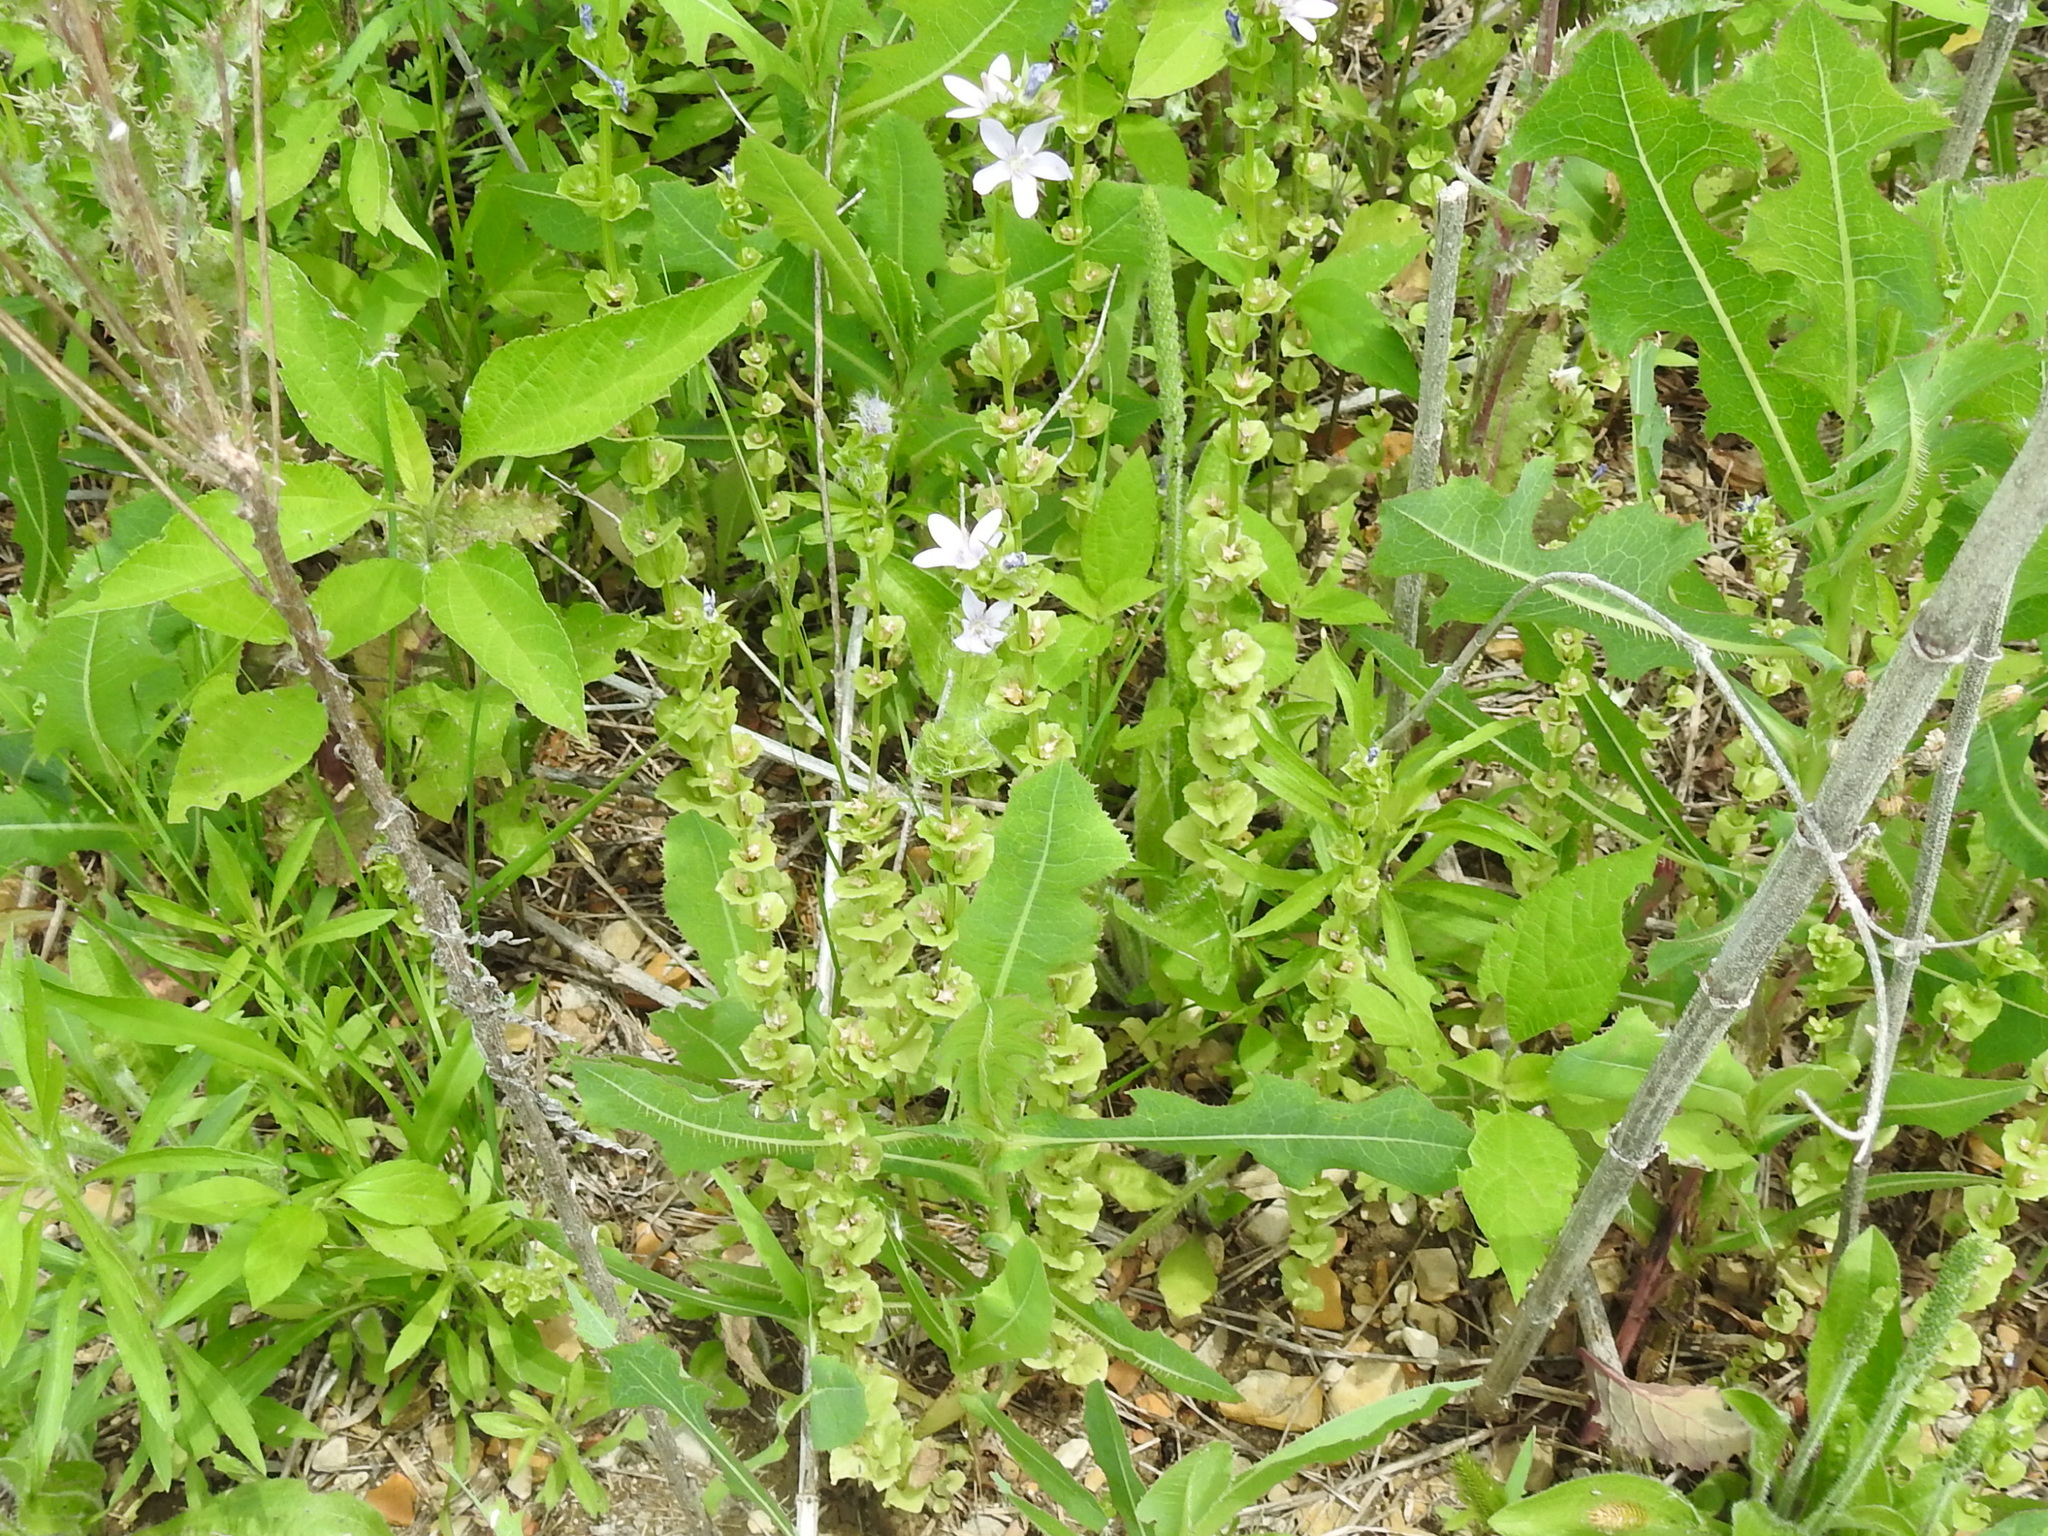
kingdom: Plantae
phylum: Tracheophyta
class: Magnoliopsida
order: Asterales
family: Campanulaceae
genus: Triodanis
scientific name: Triodanis perfoliata
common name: Clasping venus' looking-glass
